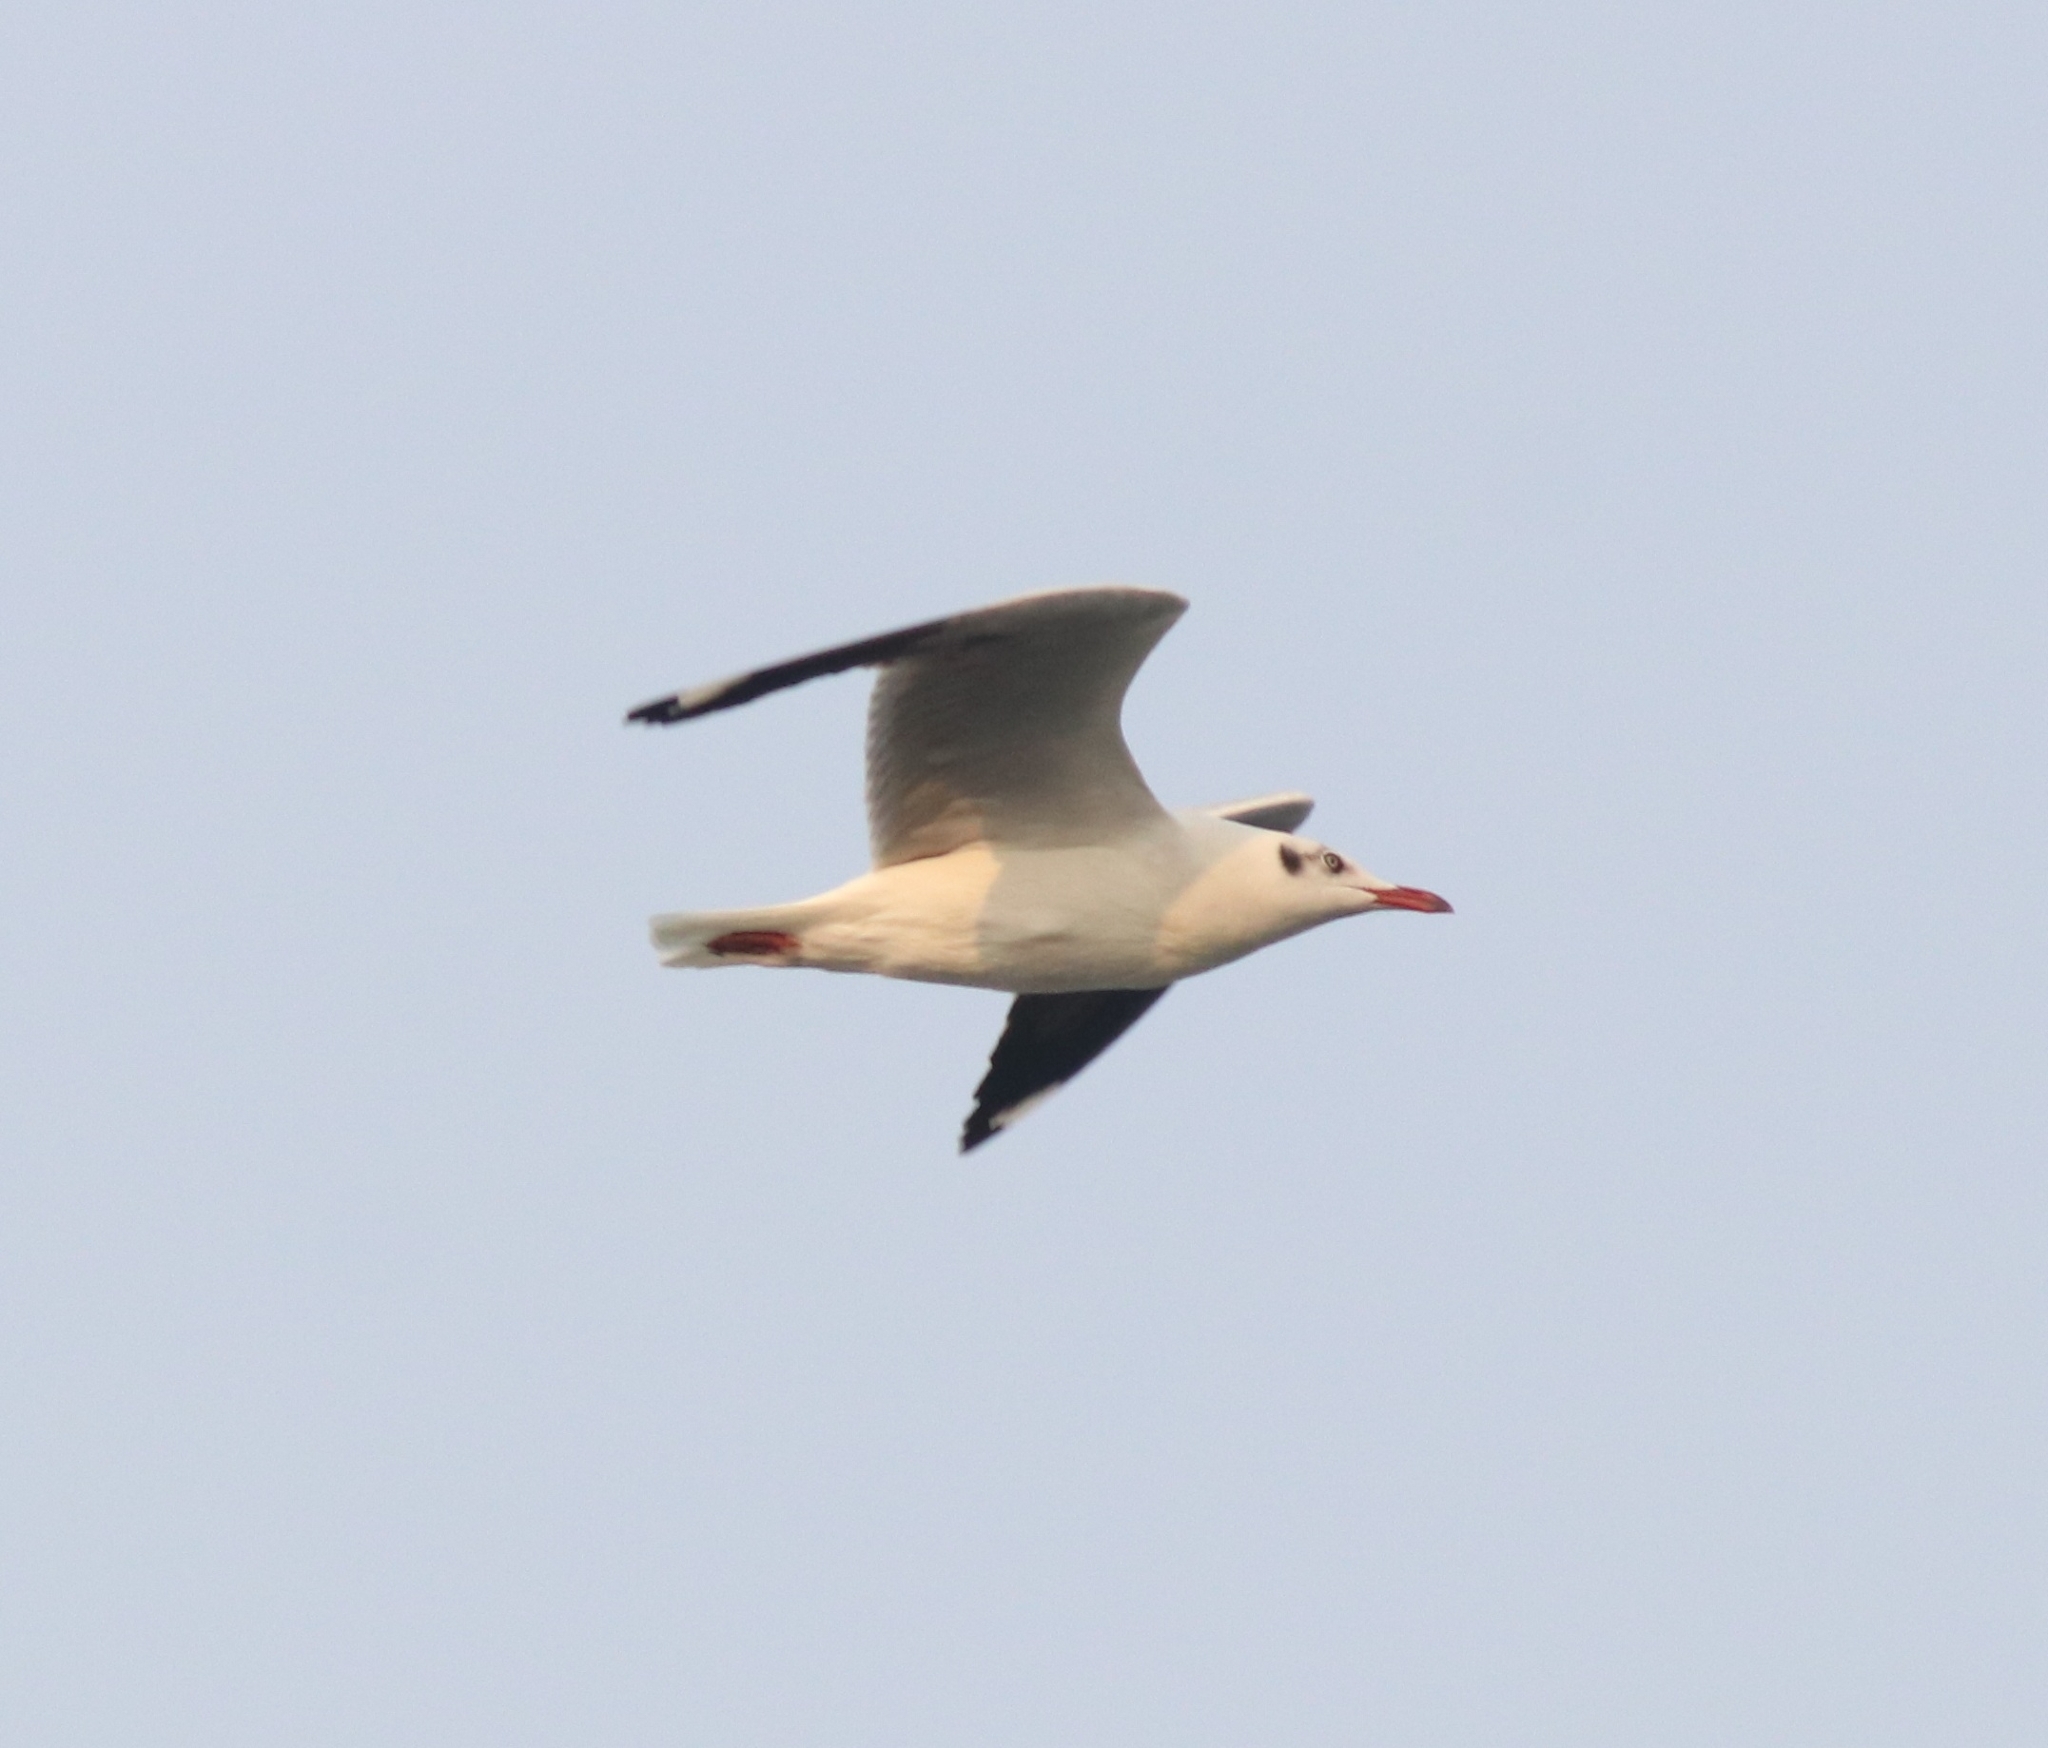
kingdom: Animalia
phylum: Chordata
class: Aves
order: Charadriiformes
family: Laridae
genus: Chroicocephalus
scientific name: Chroicocephalus brunnicephalus
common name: Brown-headed gull
